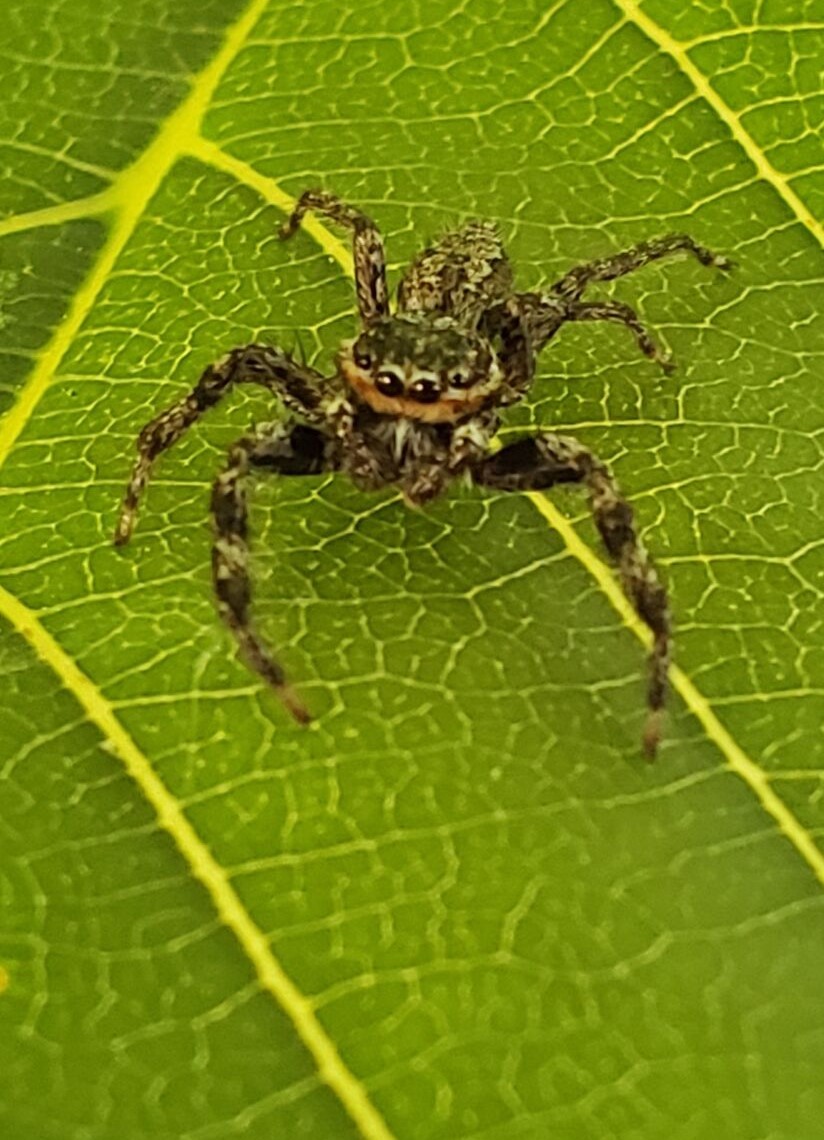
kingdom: Animalia
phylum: Arthropoda
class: Arachnida
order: Araneae
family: Salticidae
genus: Platycryptus
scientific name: Platycryptus undatus
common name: Tan jumping spider
